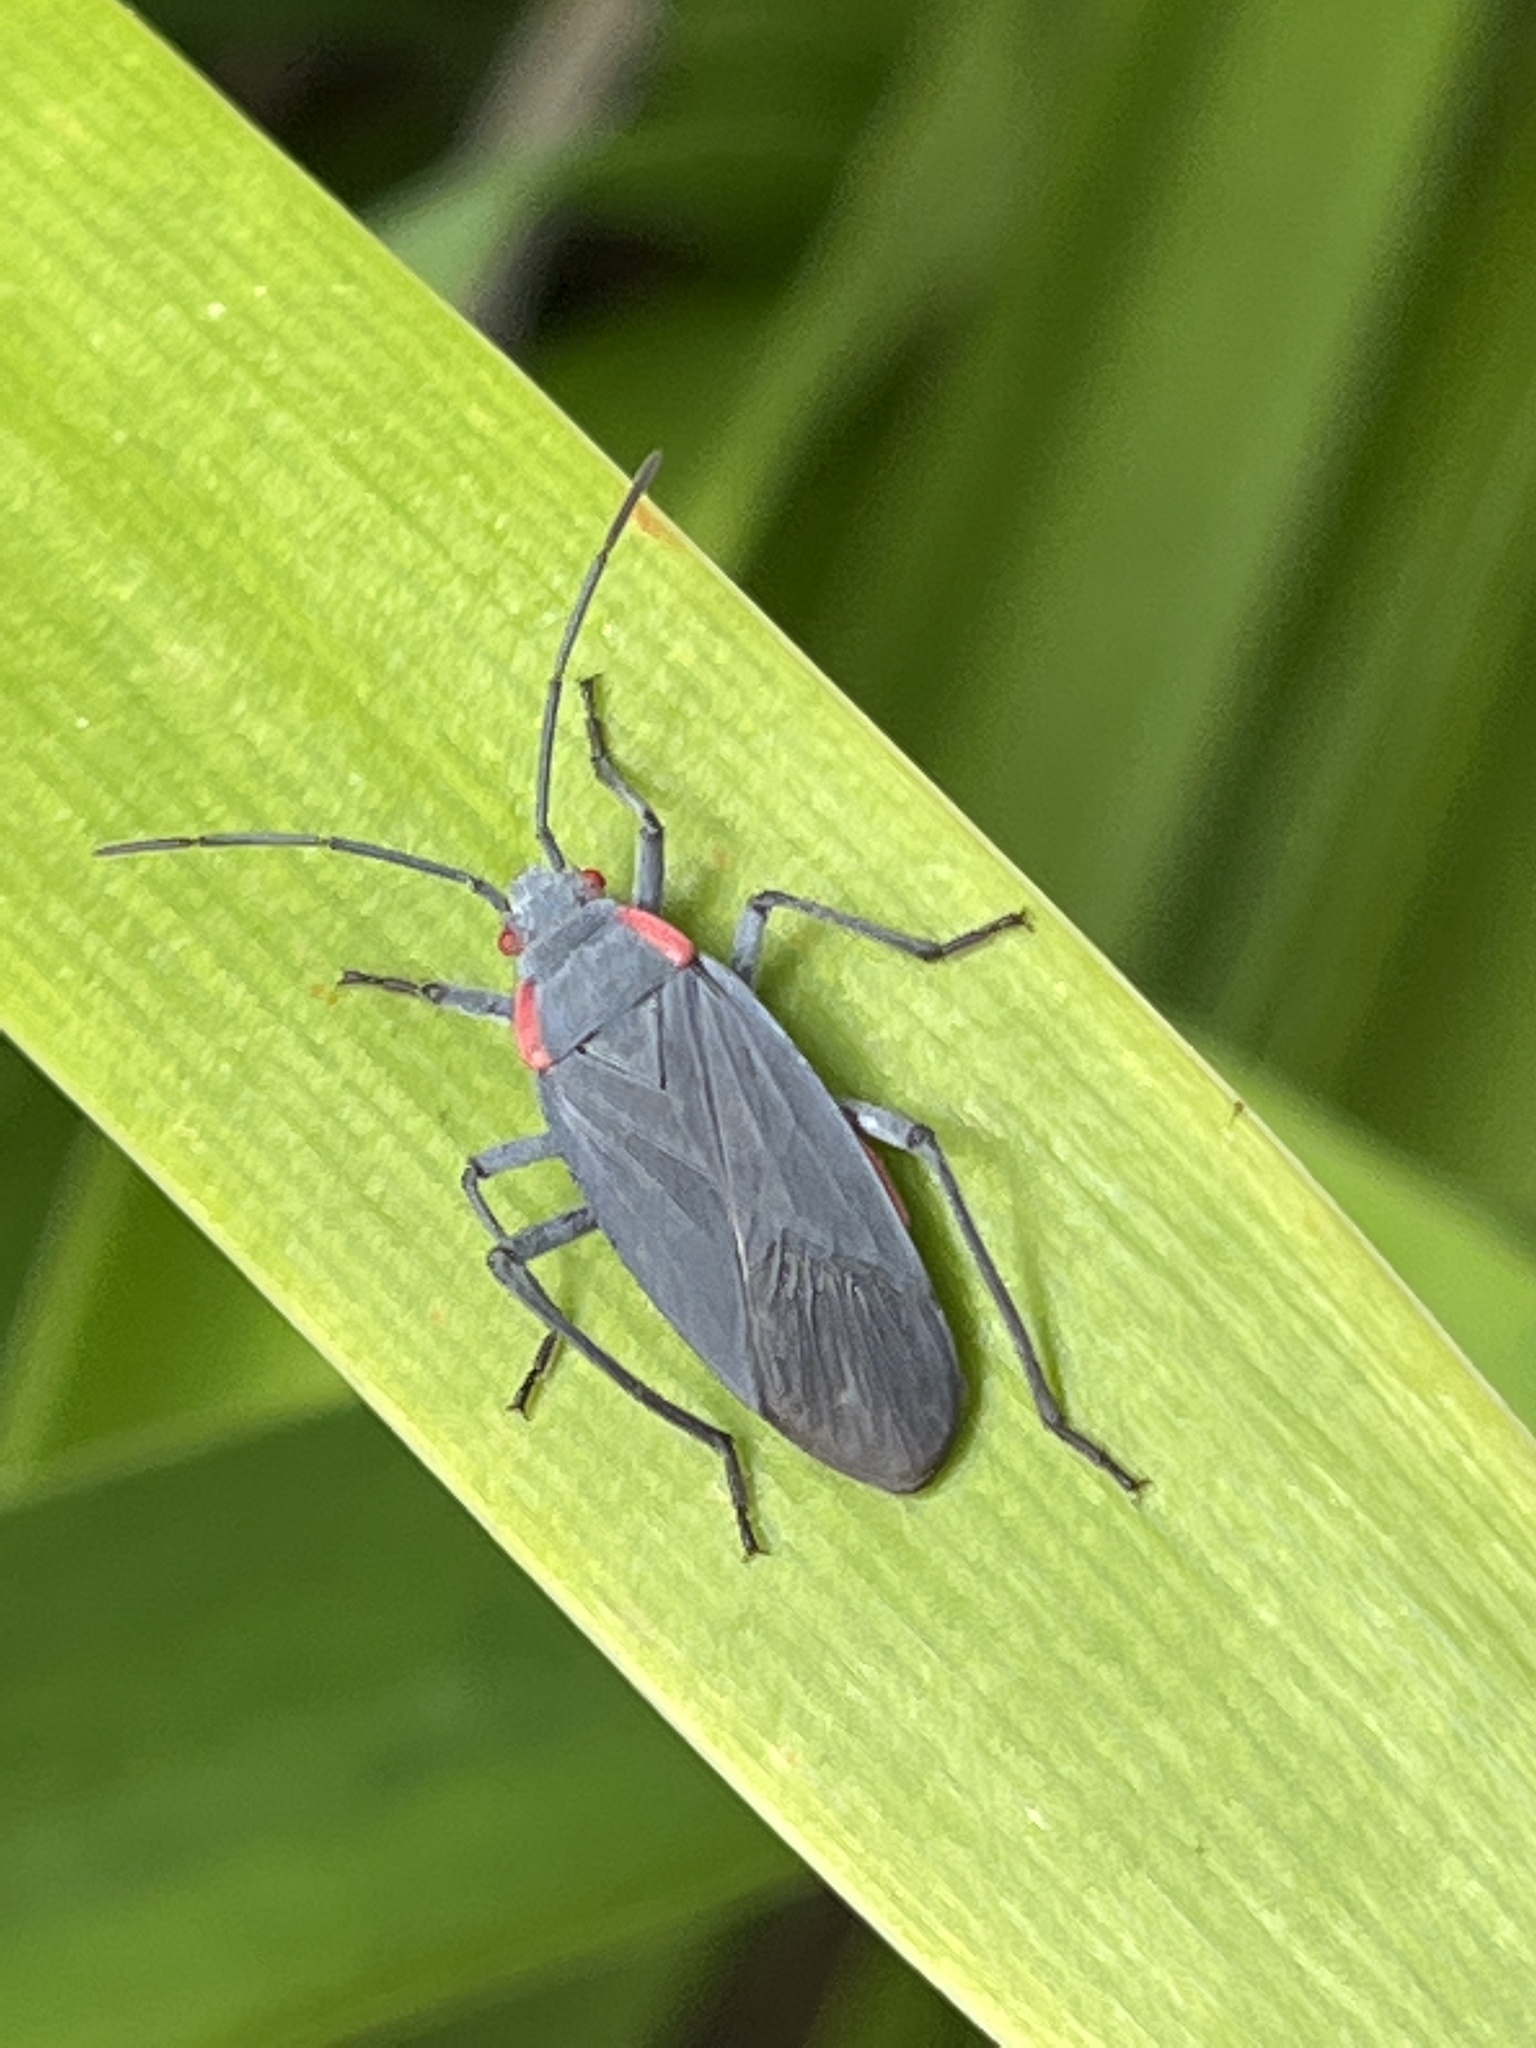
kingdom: Animalia
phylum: Arthropoda
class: Insecta
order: Hemiptera
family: Rhopalidae
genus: Jadera
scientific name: Jadera haematoloma
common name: Red-shouldered bug
